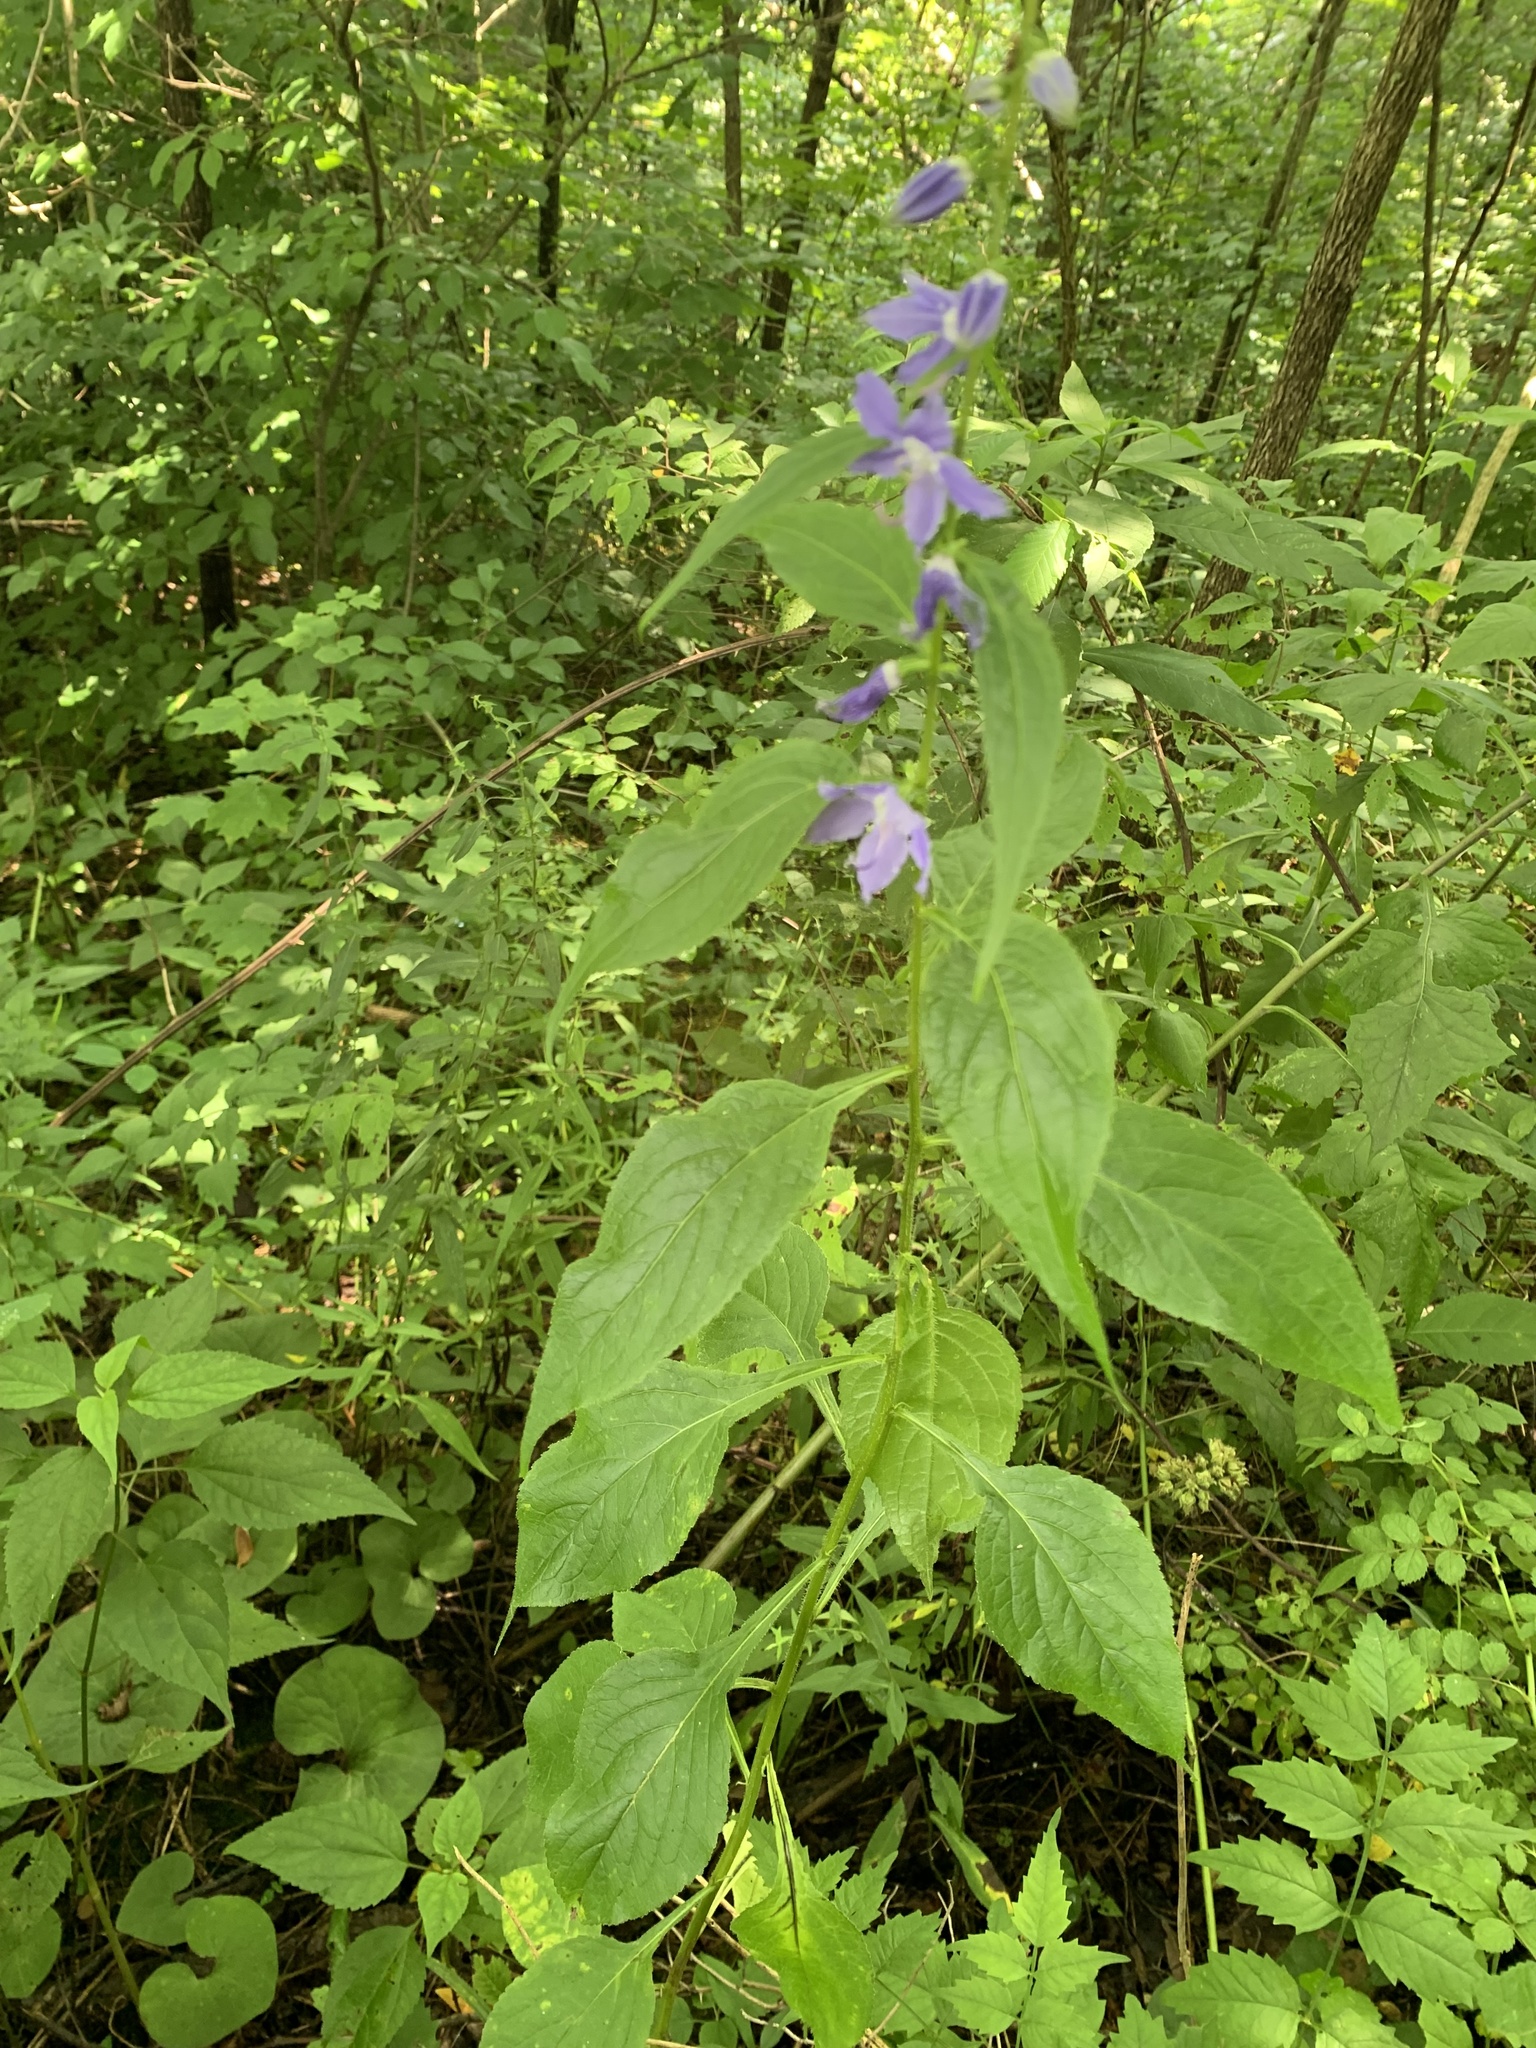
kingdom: Plantae
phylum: Tracheophyta
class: Magnoliopsida
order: Asterales
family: Campanulaceae
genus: Campanulastrum
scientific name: Campanulastrum americanum
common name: American bellflower
